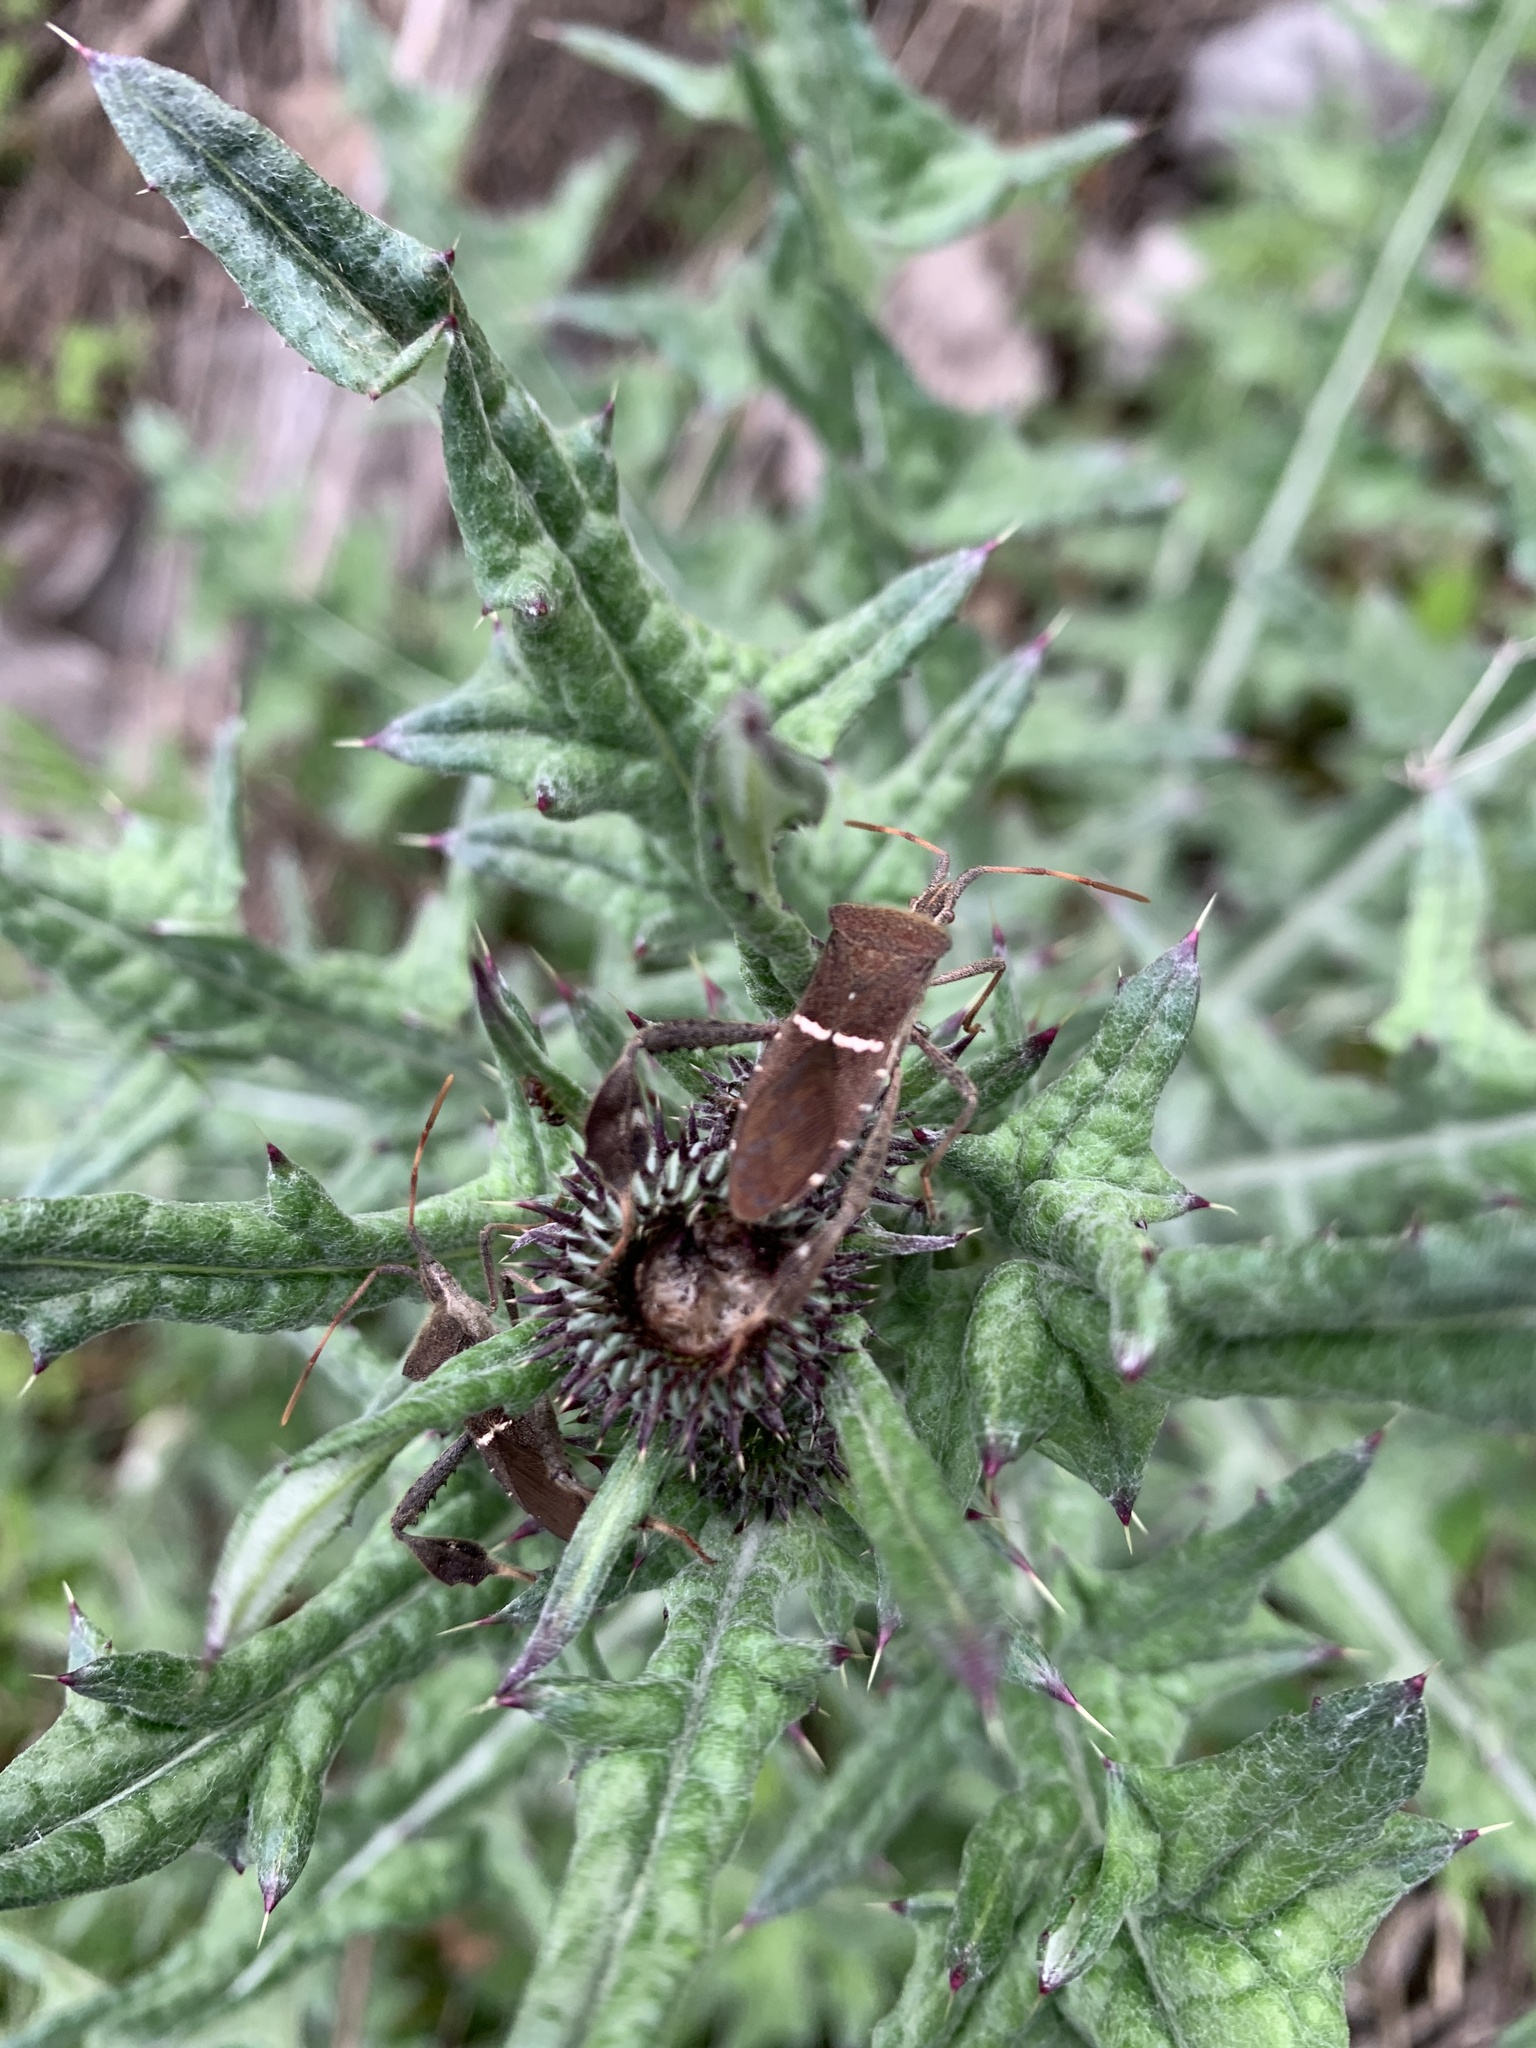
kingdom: Animalia
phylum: Arthropoda
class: Insecta
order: Hemiptera
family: Coreidae
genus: Leptoglossus
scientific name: Leptoglossus phyllopus
